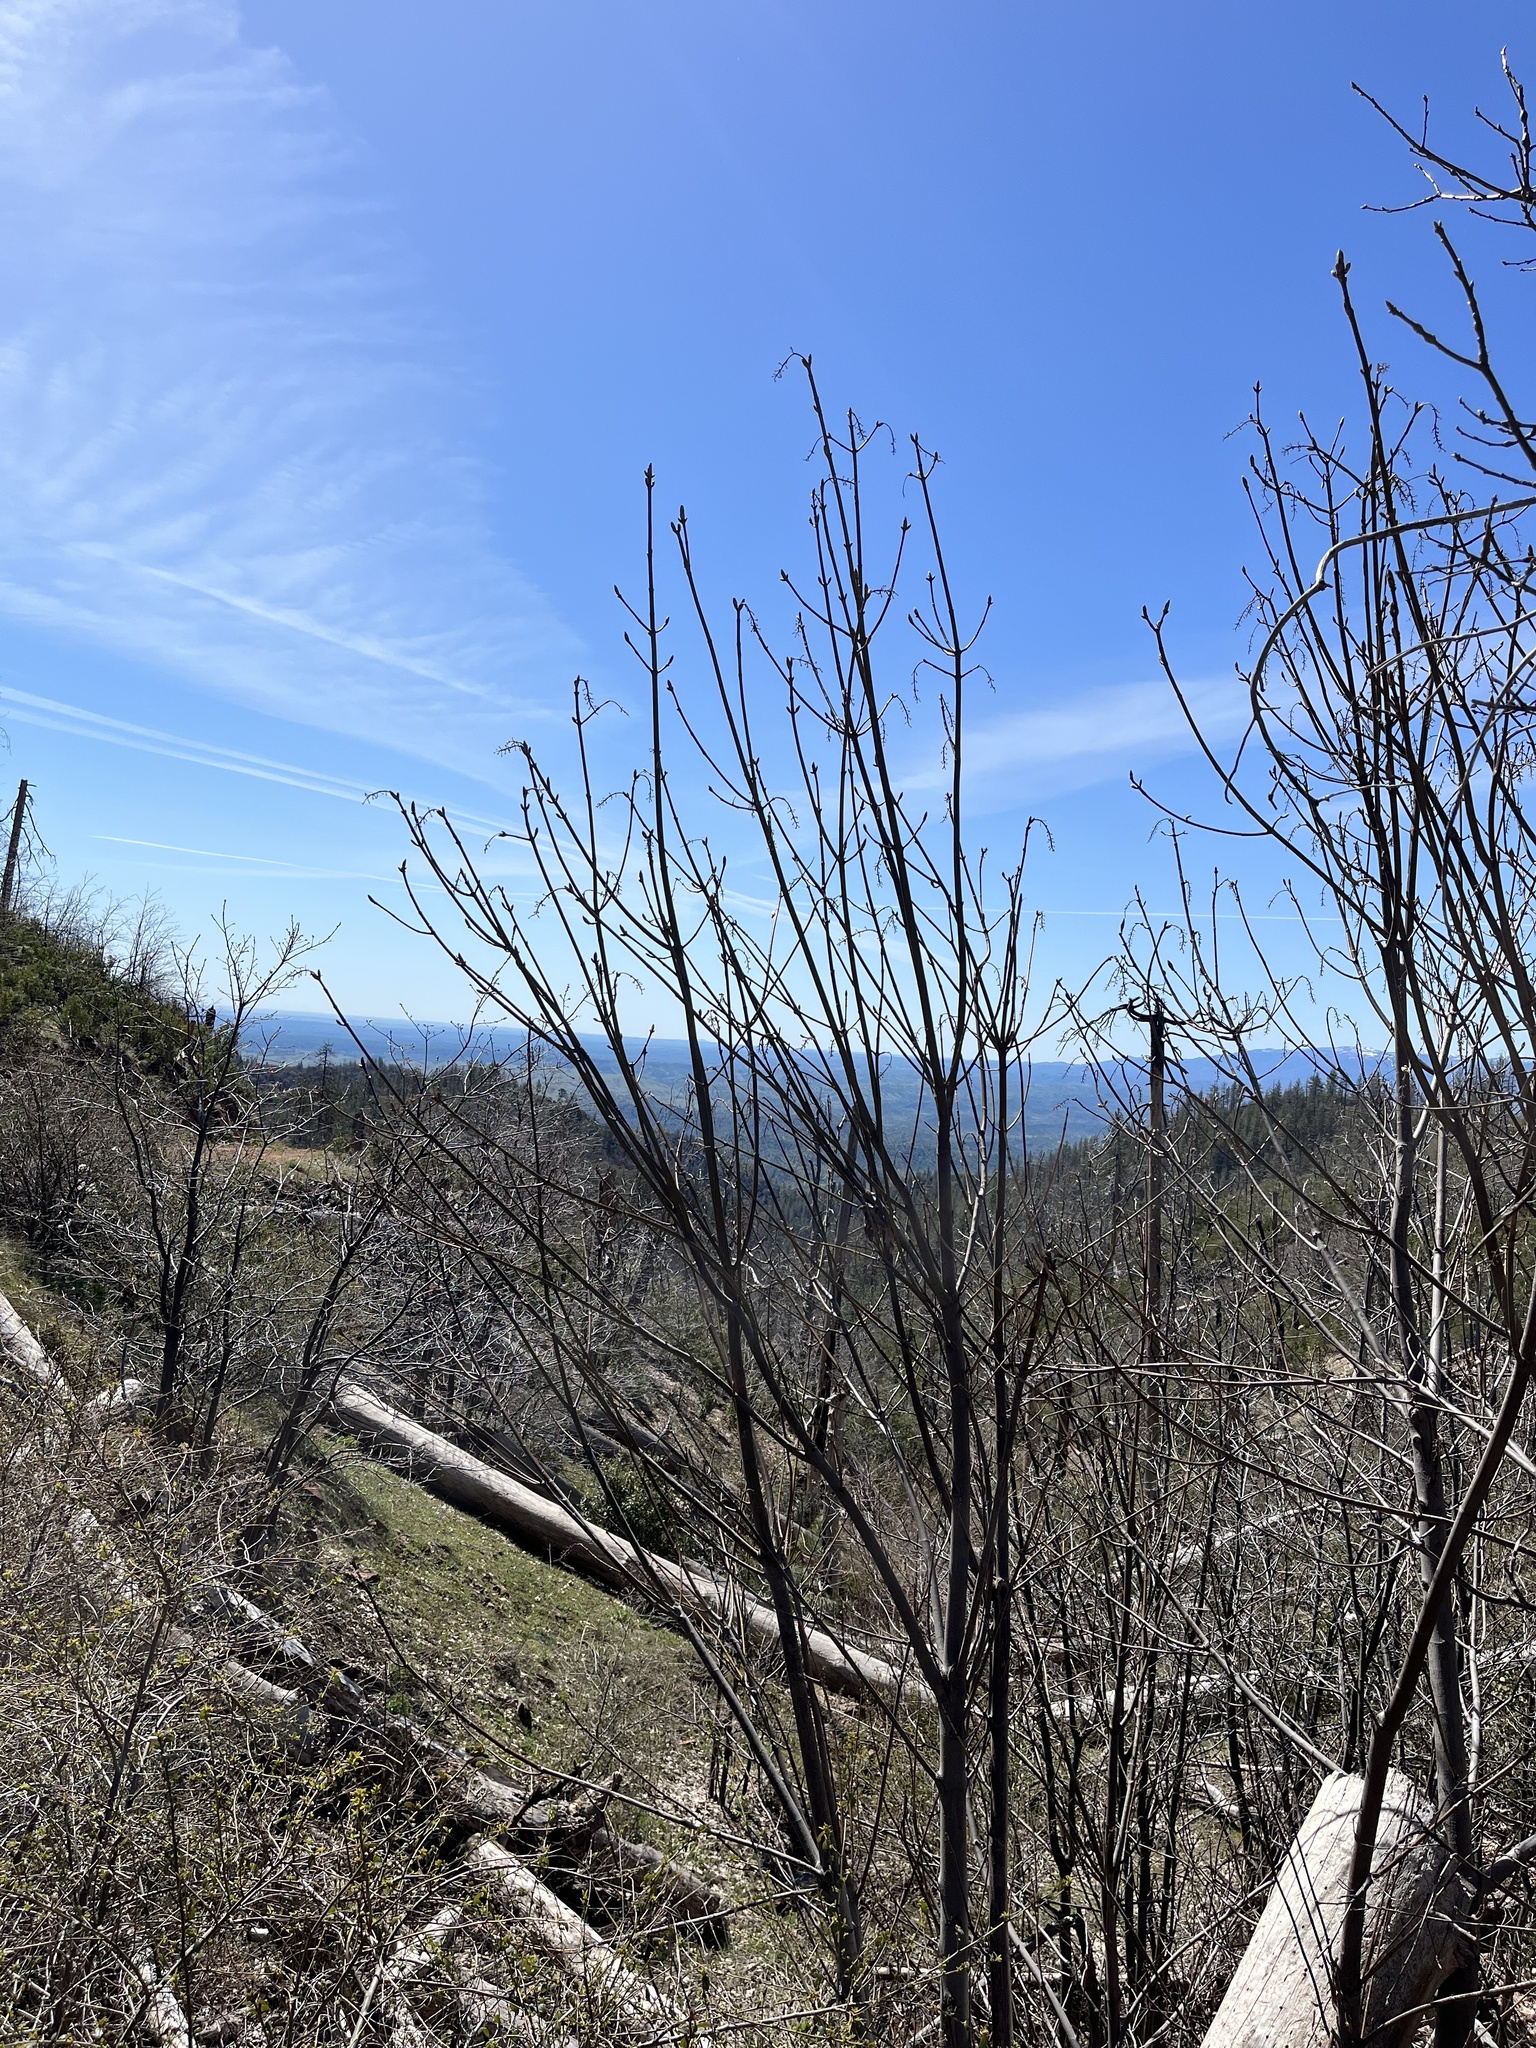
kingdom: Plantae
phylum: Tracheophyta
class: Magnoliopsida
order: Sapindales
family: Sapindaceae
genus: Acer
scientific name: Acer macrophyllum
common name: Oregon maple
